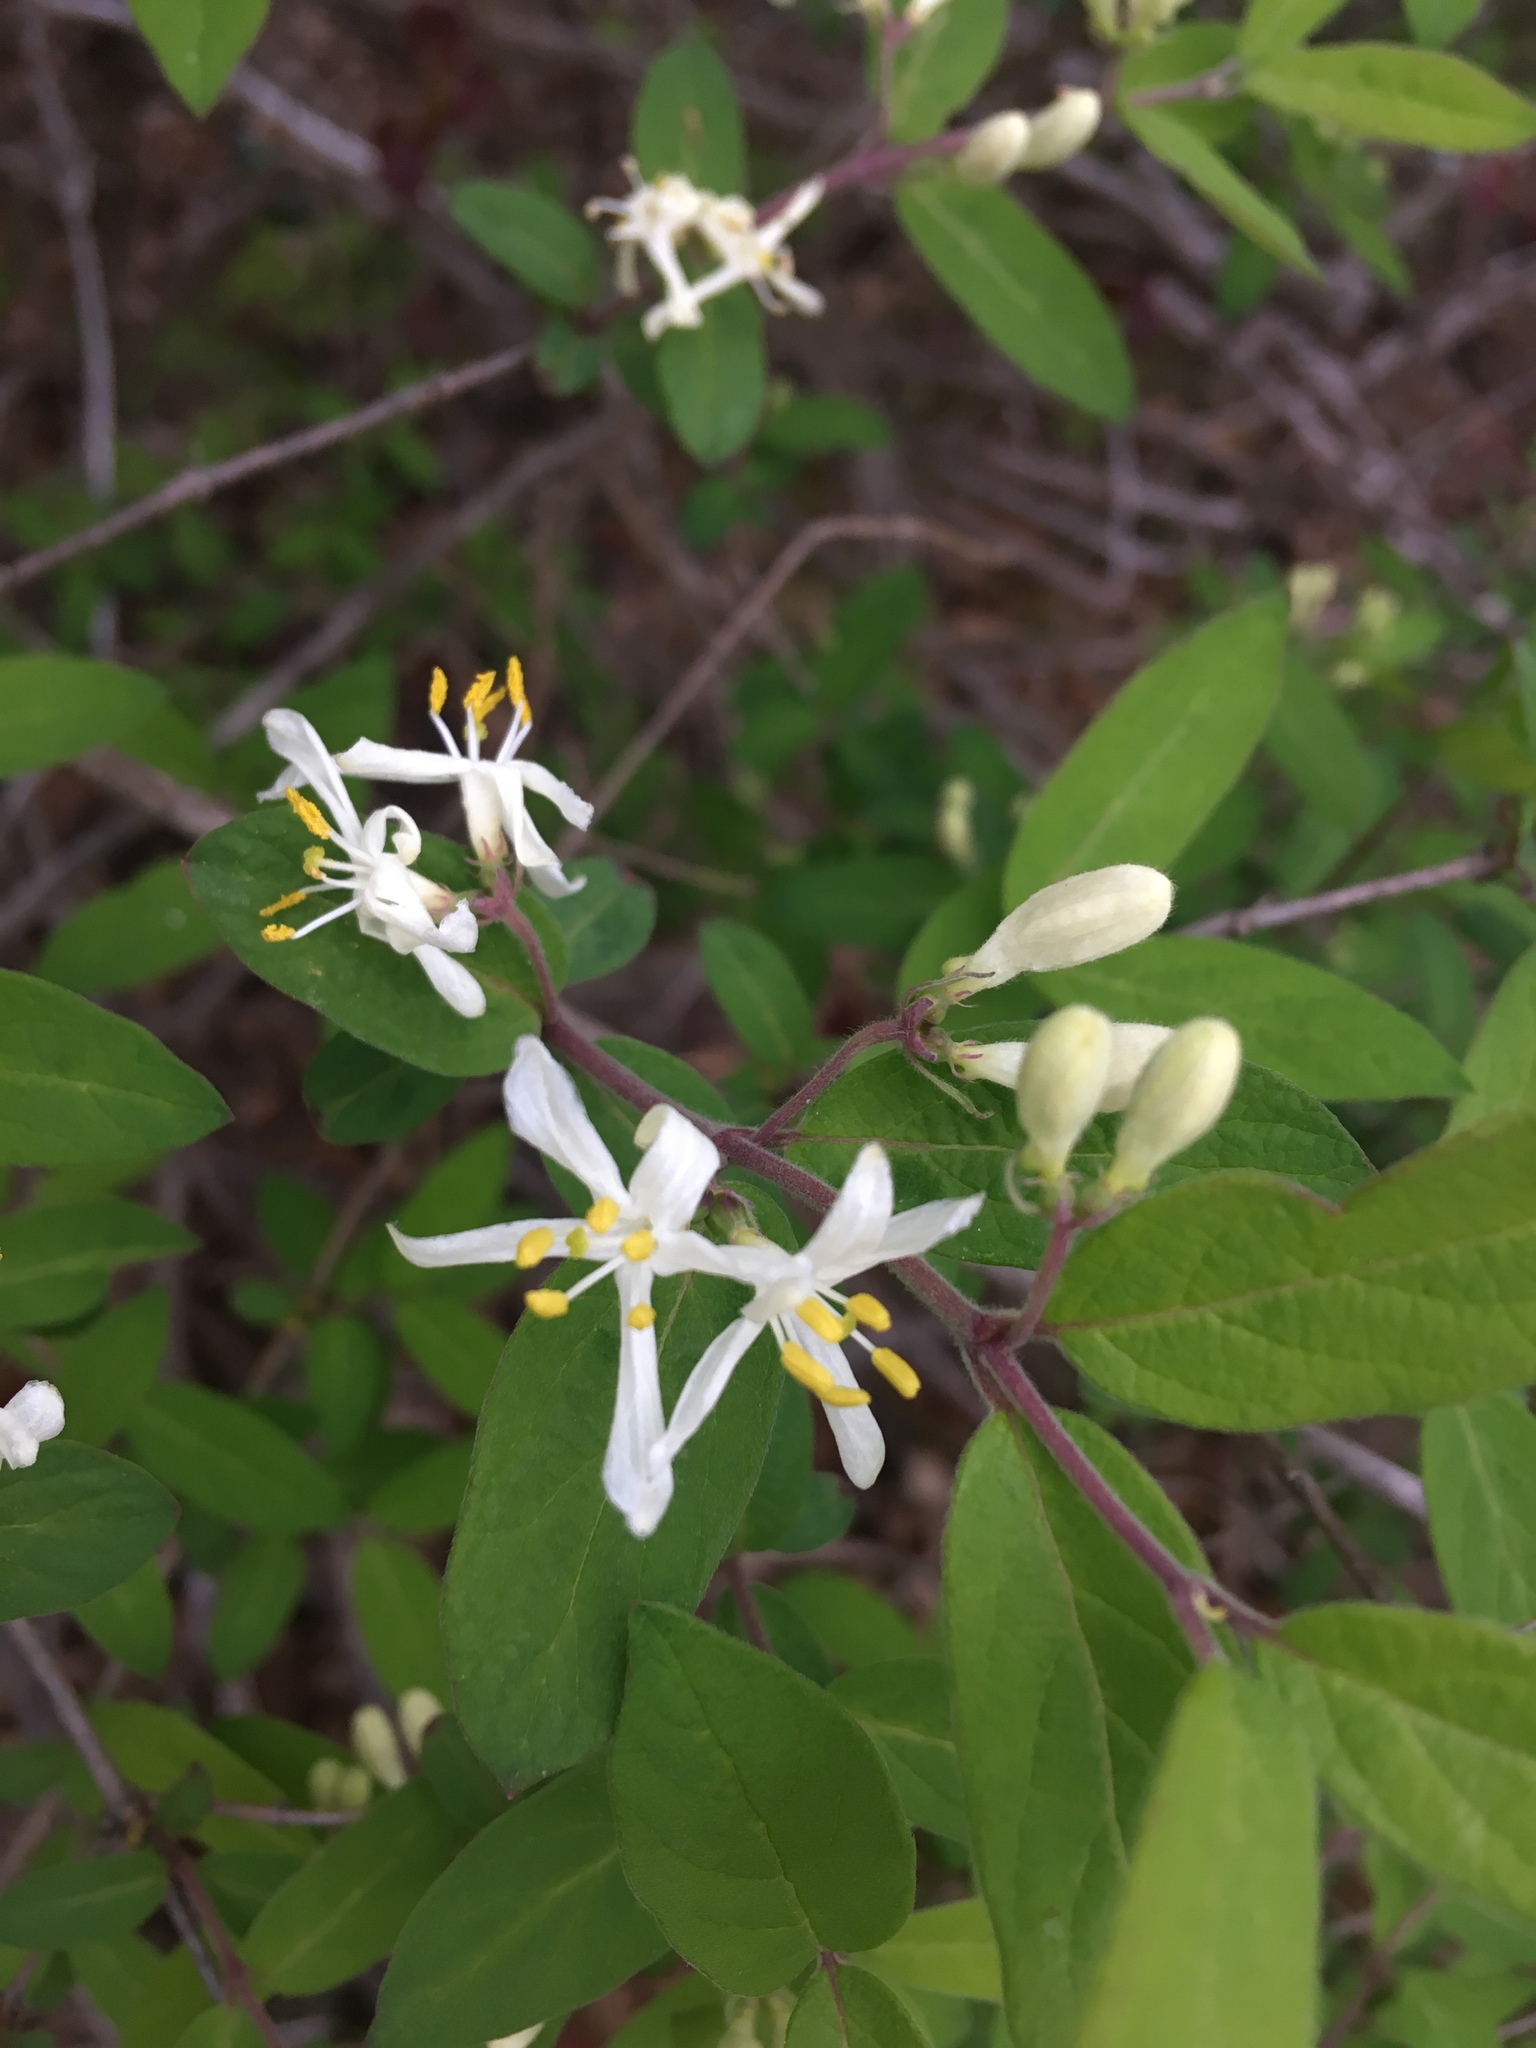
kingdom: Plantae
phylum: Tracheophyta
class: Magnoliopsida
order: Dipsacales
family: Caprifoliaceae
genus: Lonicera
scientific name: Lonicera morrowii
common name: Morrow's honeysuckle
